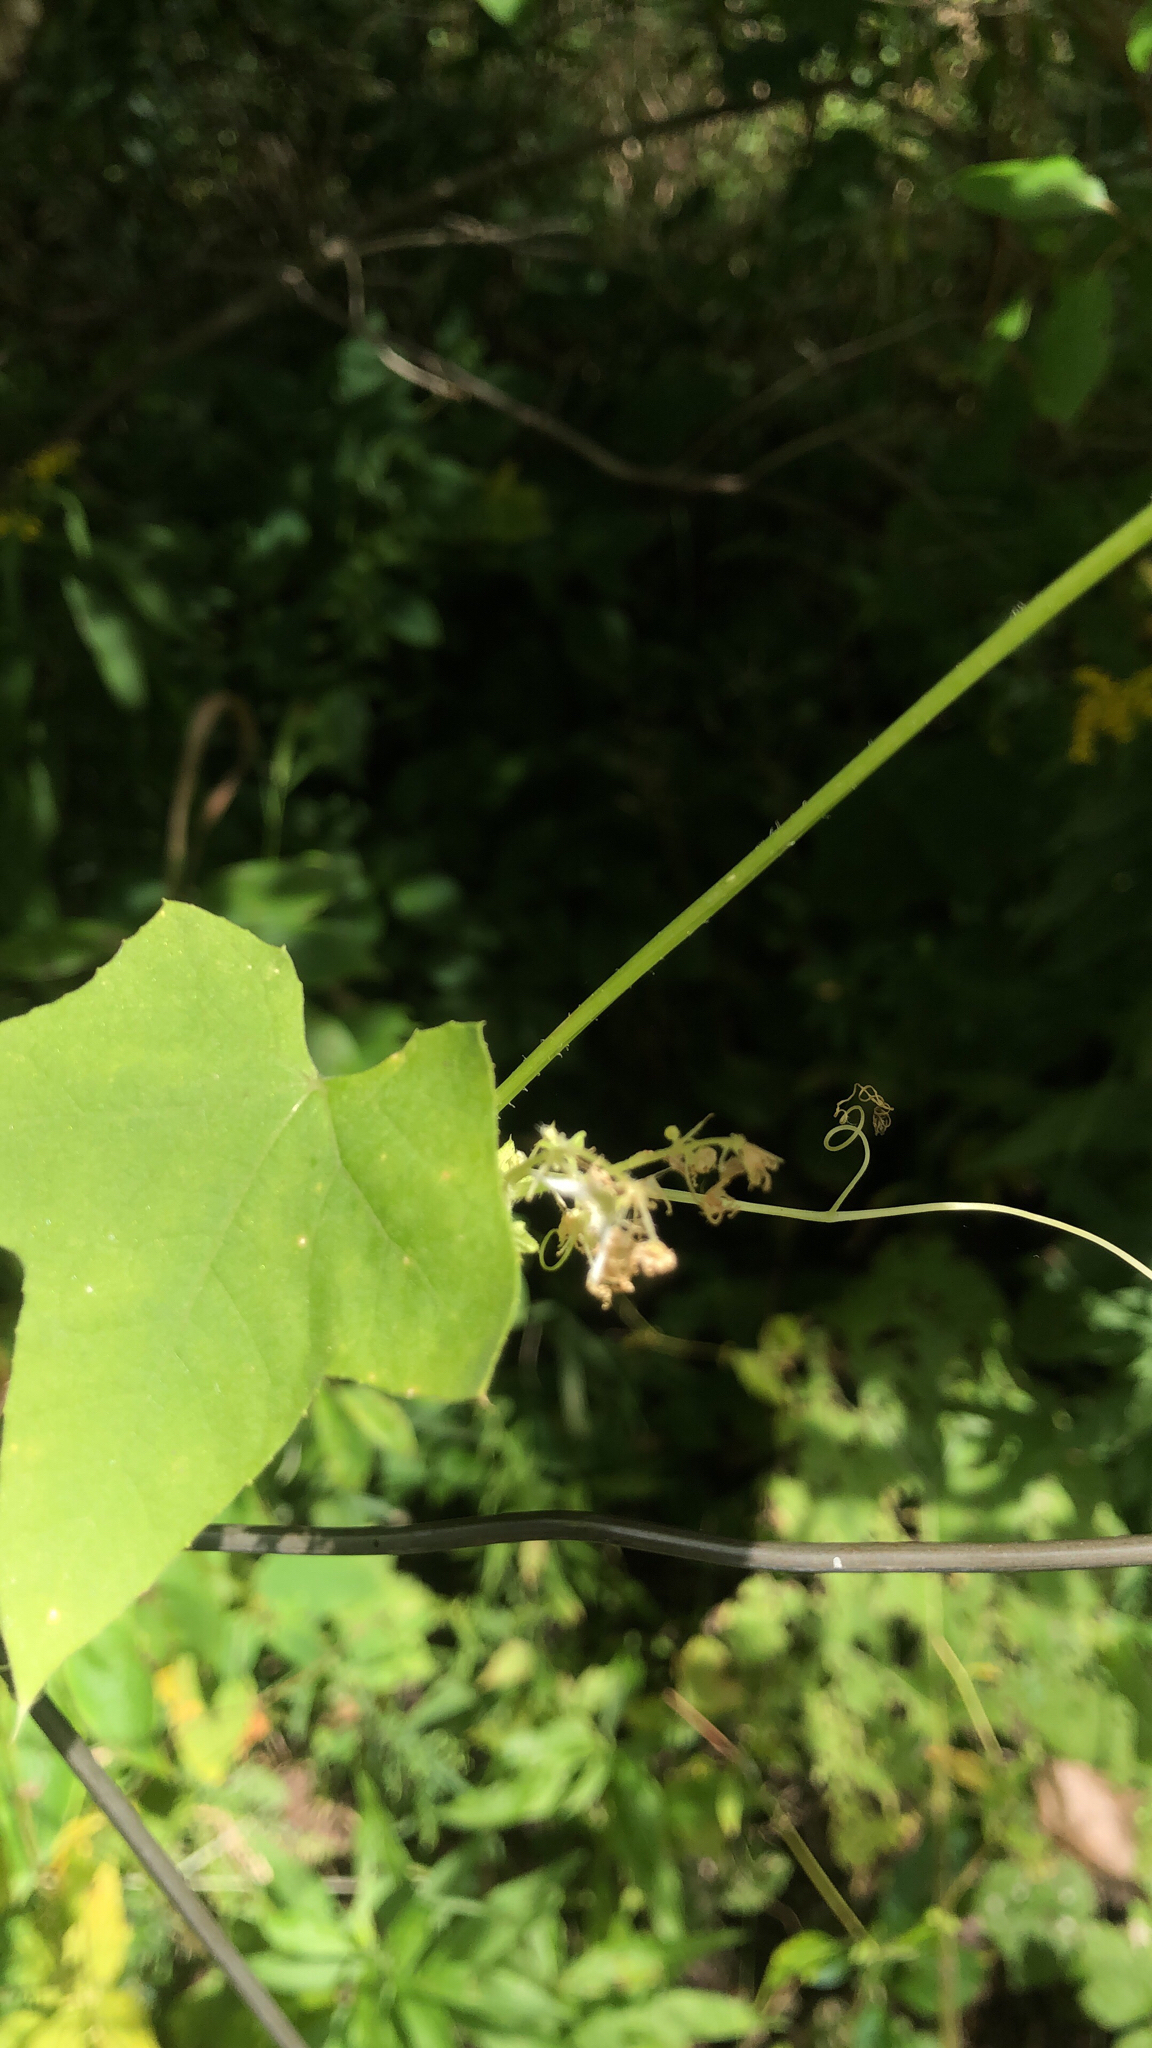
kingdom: Plantae
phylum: Tracheophyta
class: Magnoliopsida
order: Cucurbitales
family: Cucurbitaceae
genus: Echinocystis
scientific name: Echinocystis lobata
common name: Wild cucumber
